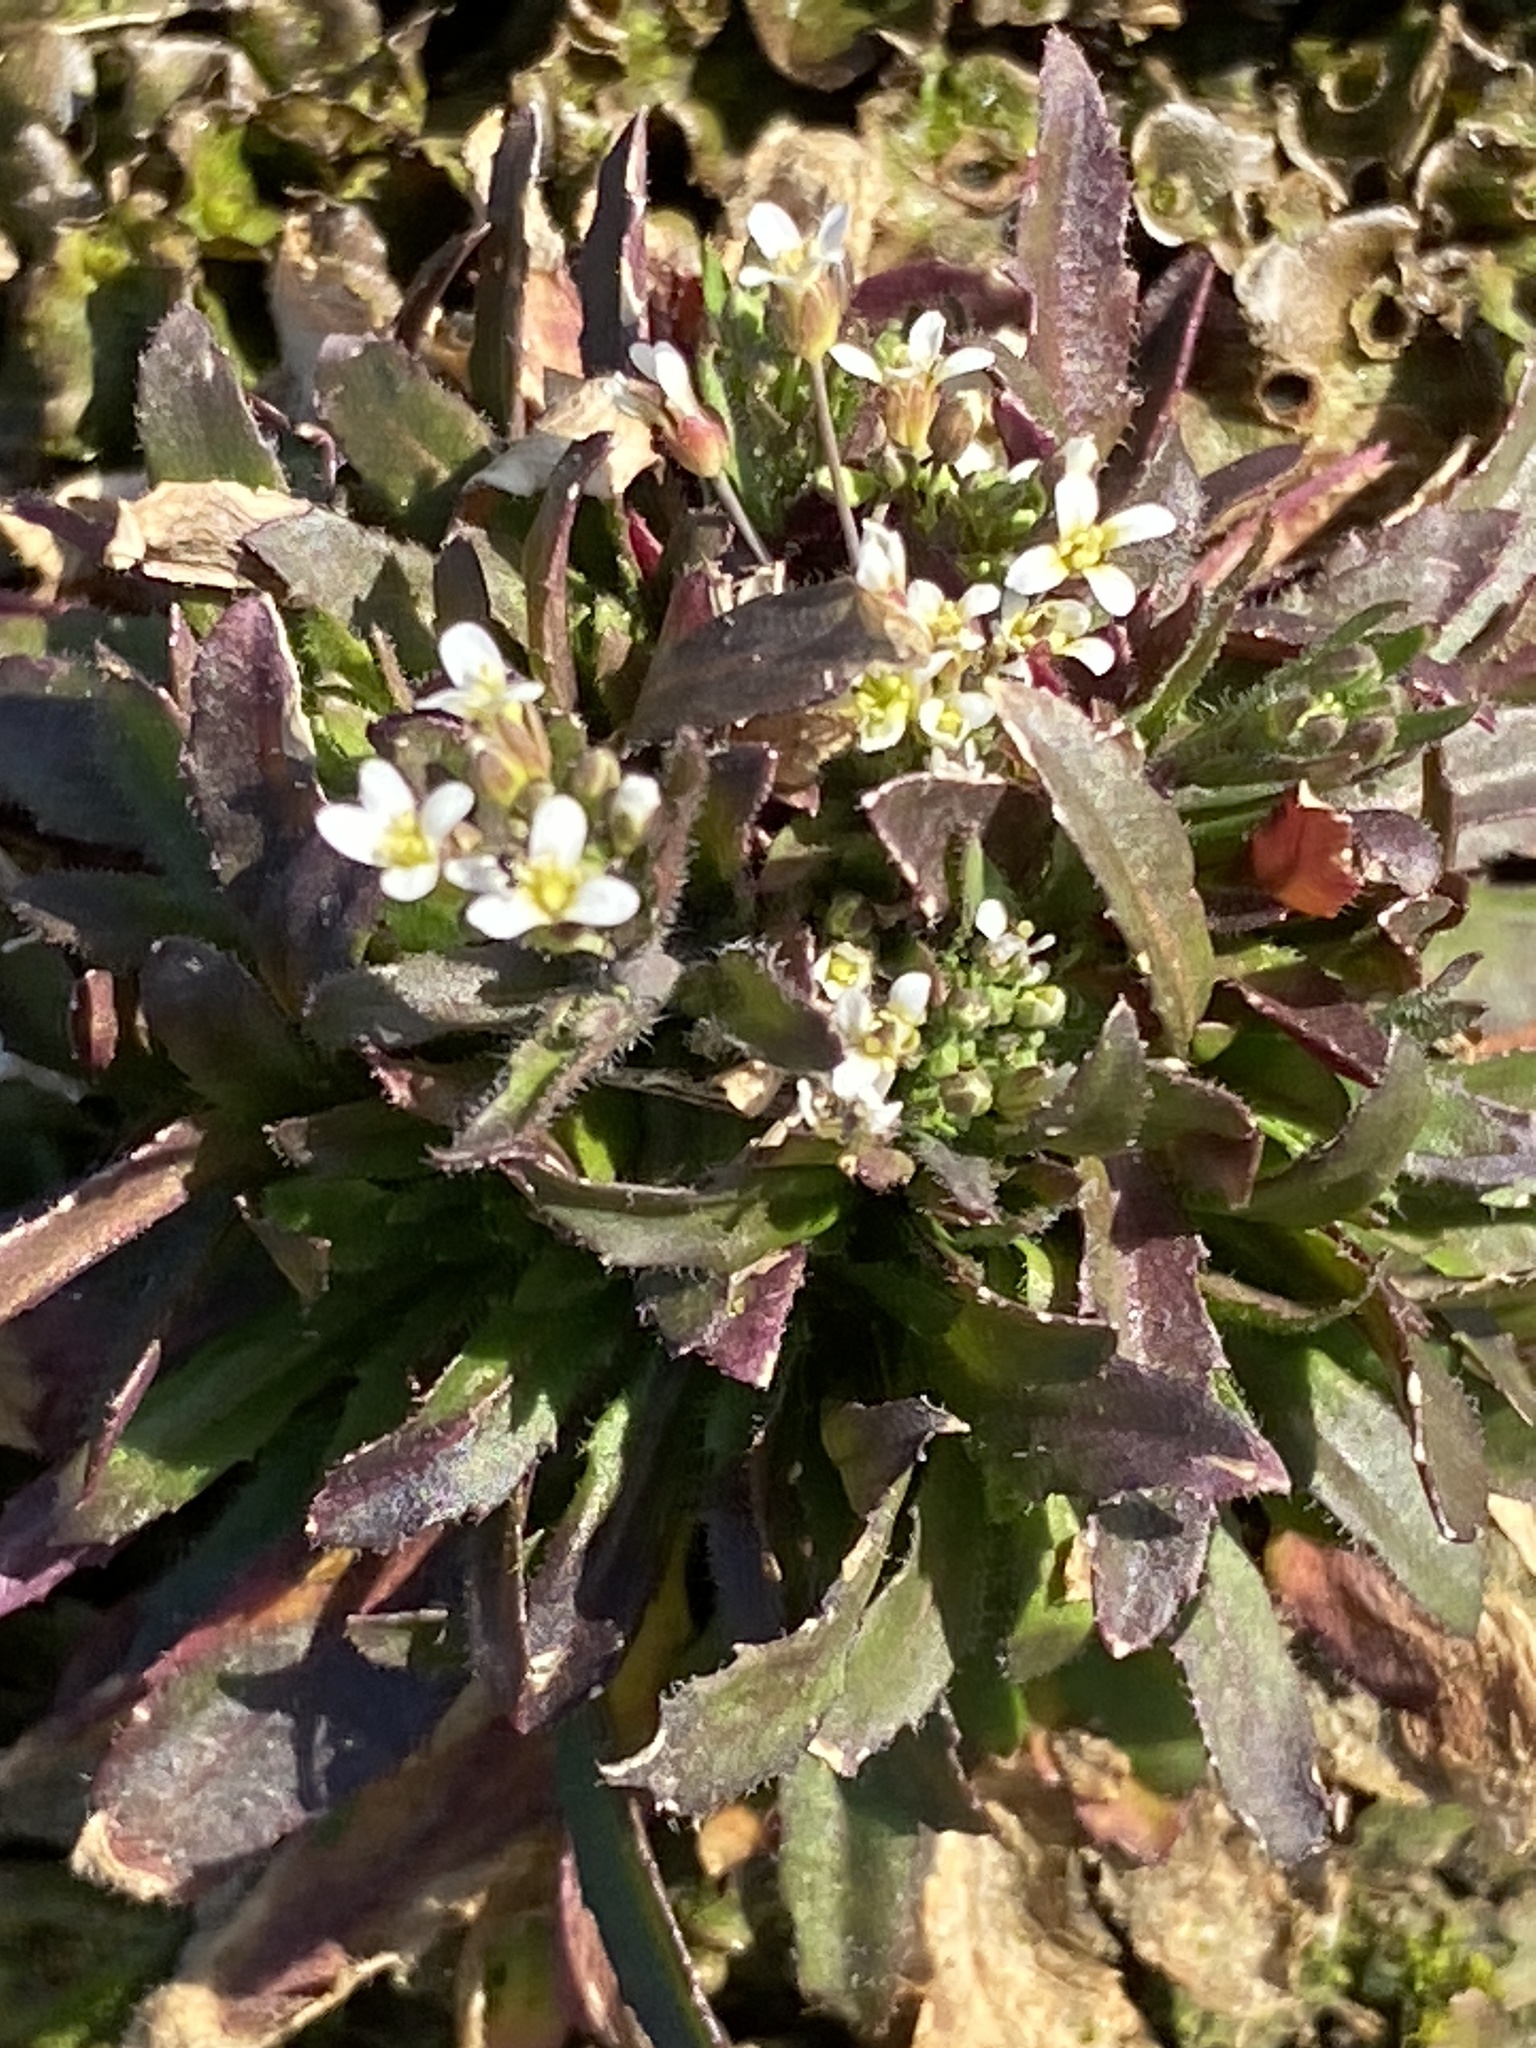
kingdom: Plantae
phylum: Tracheophyta
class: Magnoliopsida
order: Brassicales
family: Brassicaceae
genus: Arabidopsis
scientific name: Arabidopsis thaliana
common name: Thale cress
